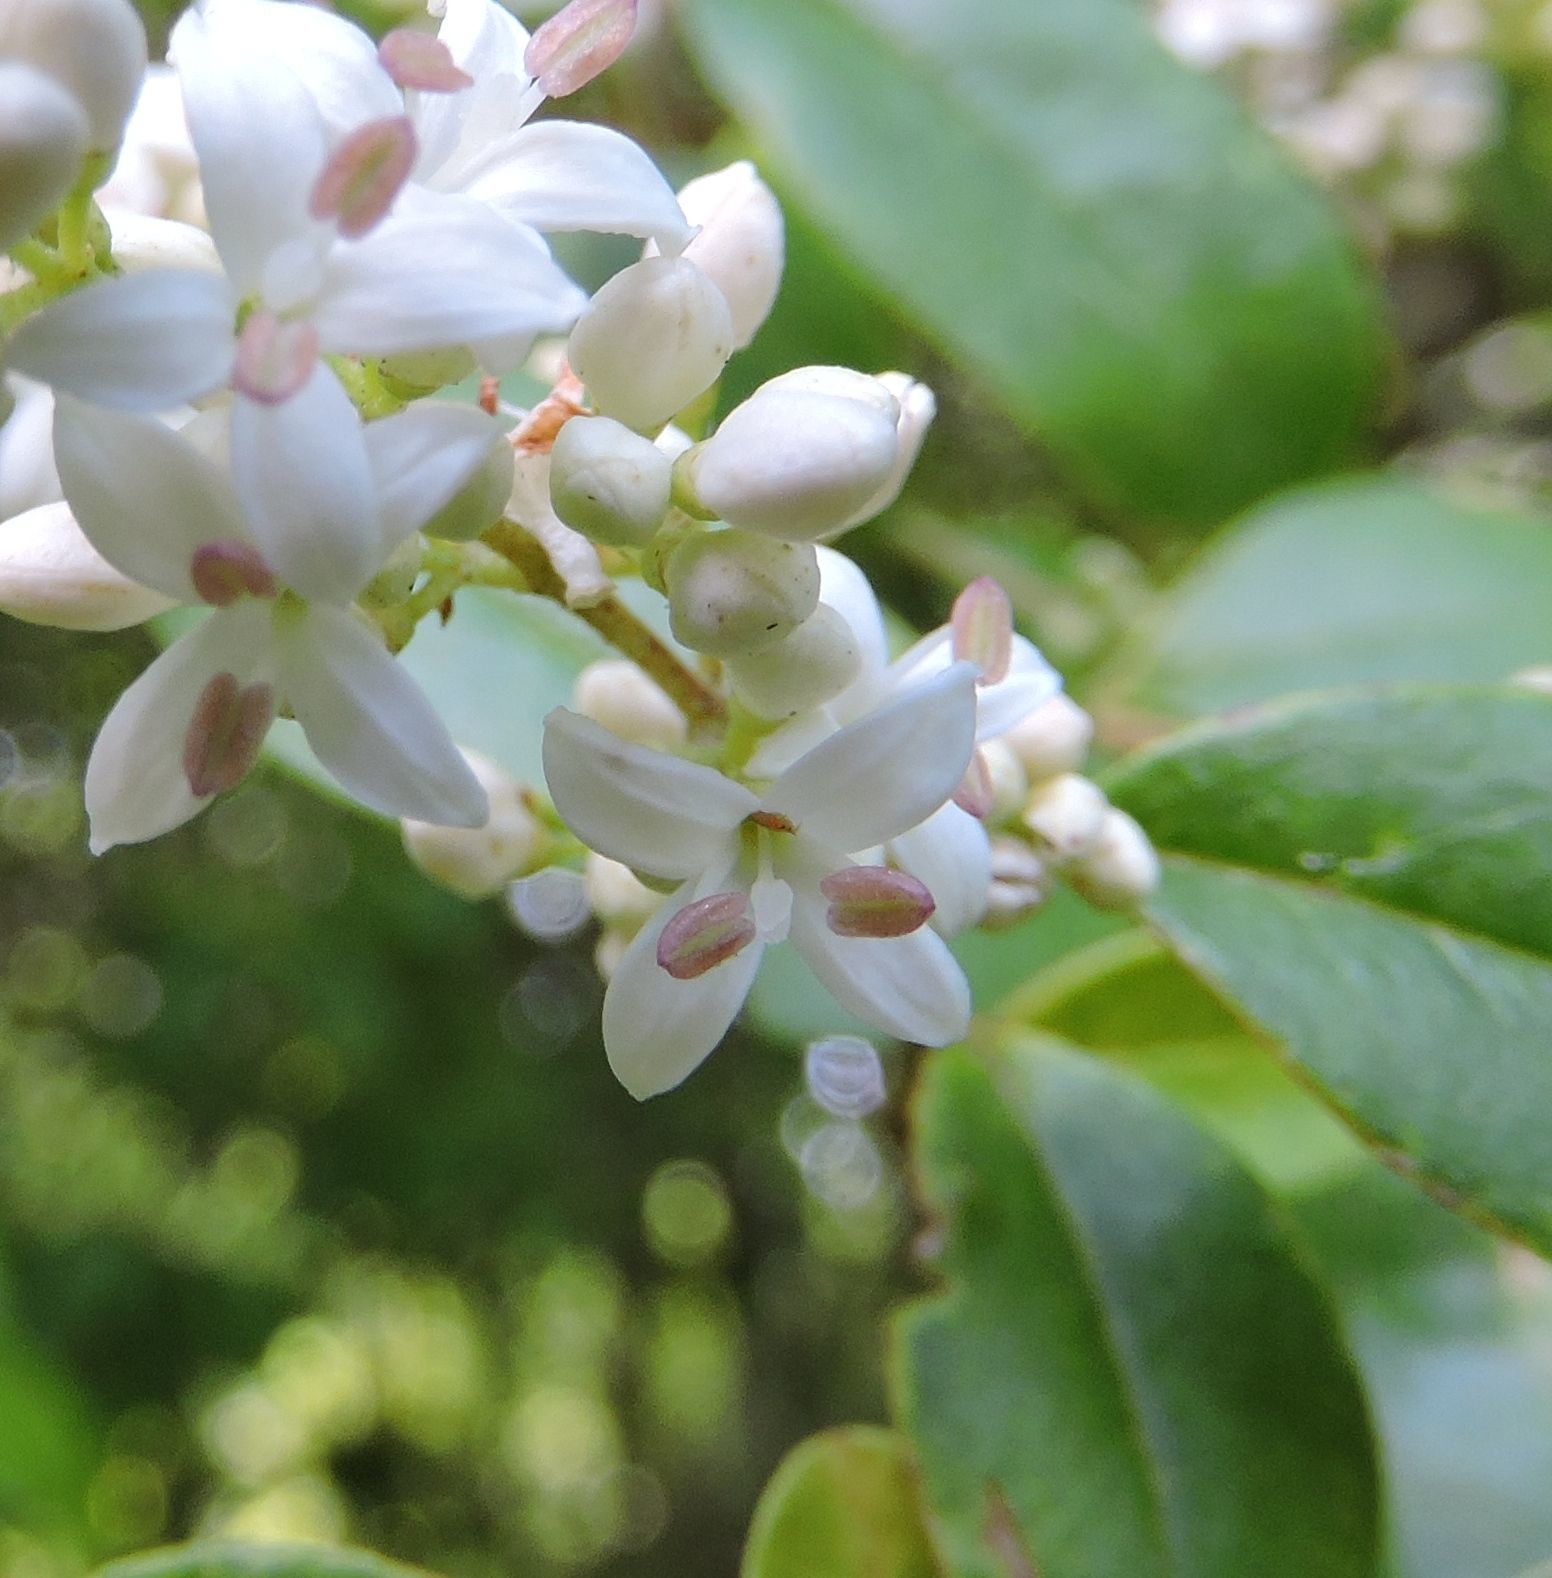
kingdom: Plantae
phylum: Tracheophyta
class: Magnoliopsida
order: Lamiales
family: Oleaceae
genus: Ligustrum
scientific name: Ligustrum sinense
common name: Chinese privet
